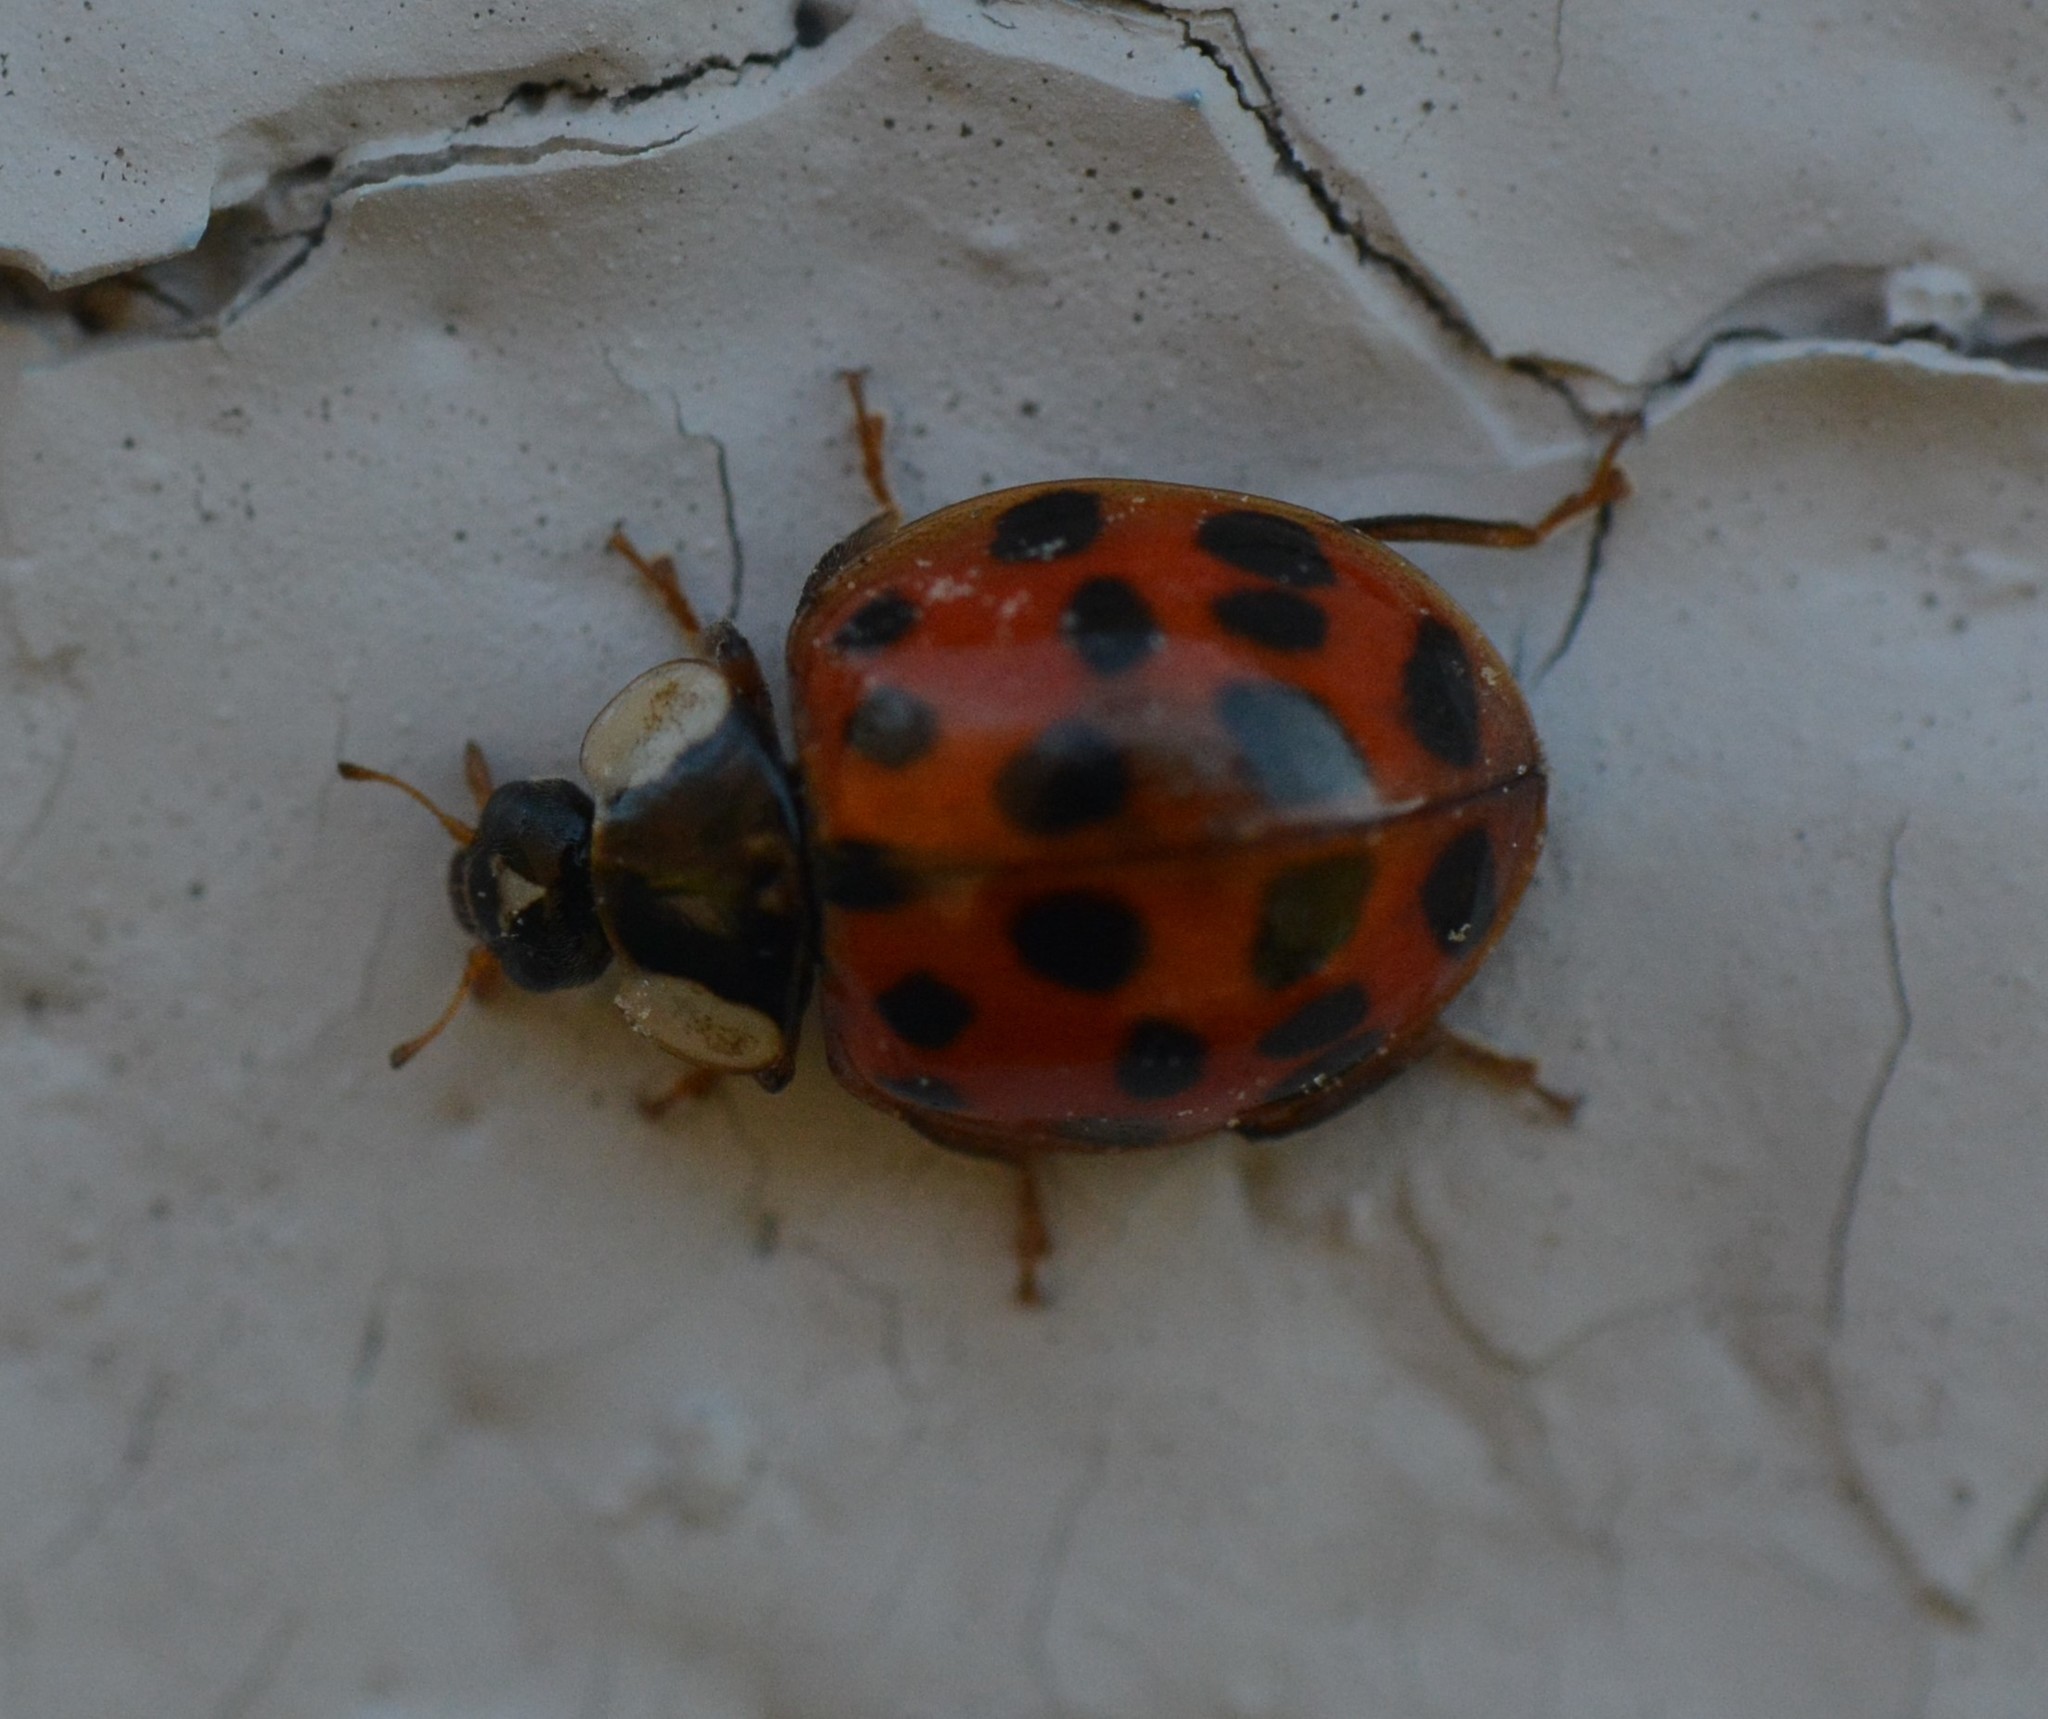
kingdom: Animalia
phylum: Arthropoda
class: Insecta
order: Coleoptera
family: Coccinellidae
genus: Harmonia
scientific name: Harmonia axyridis
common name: Harlequin ladybird
